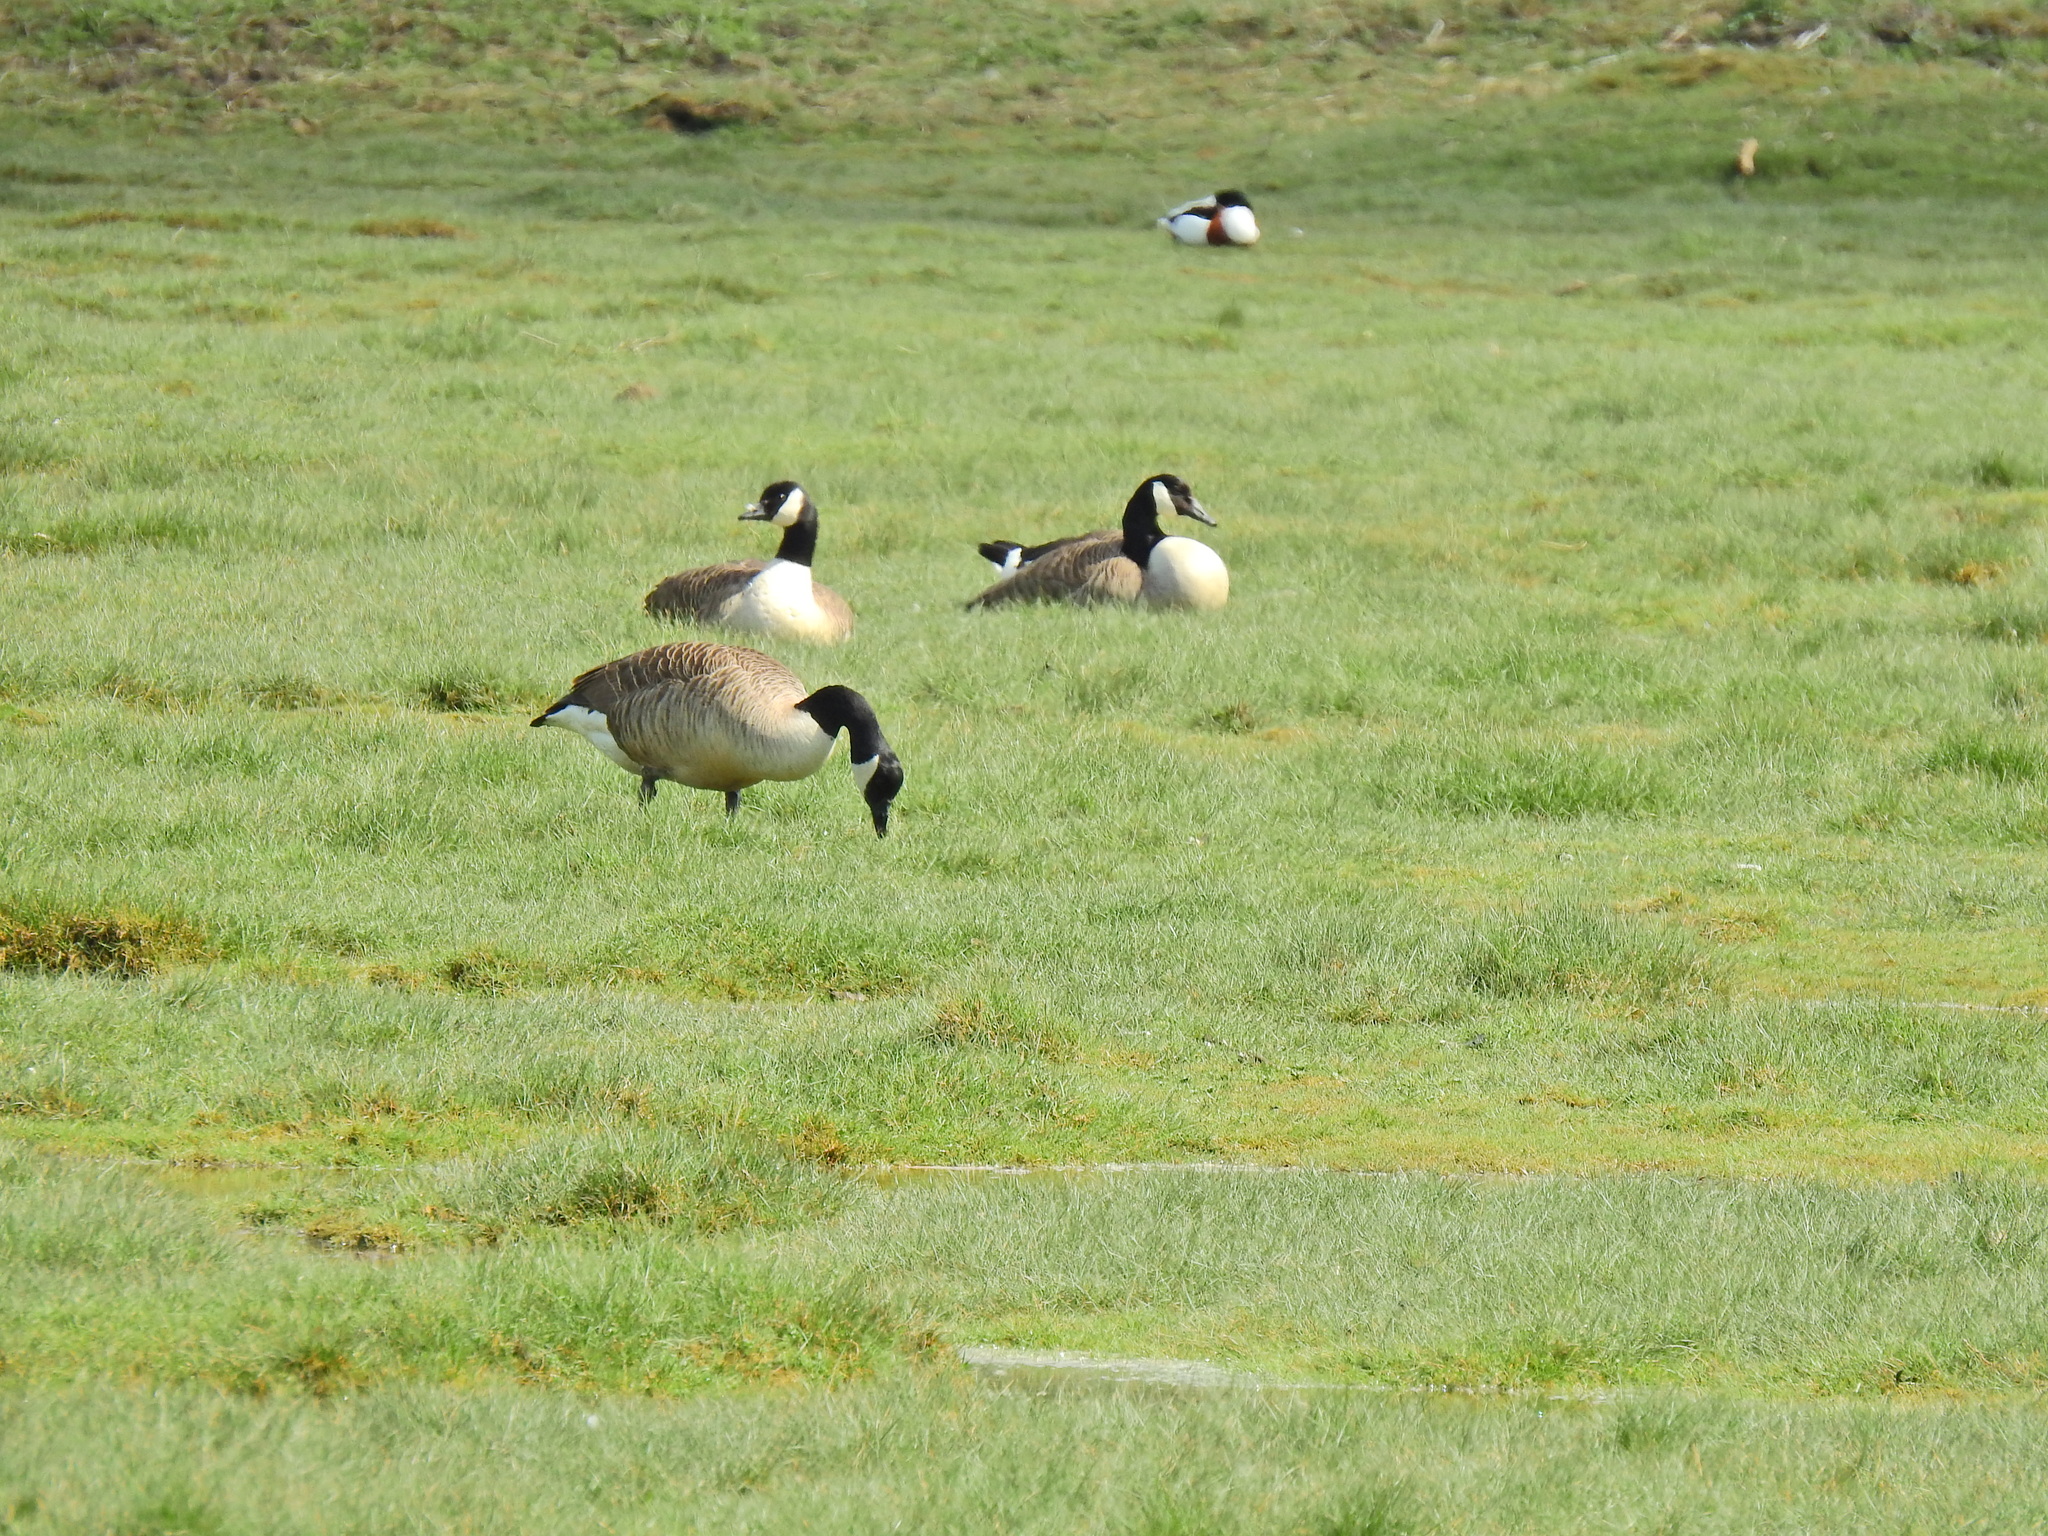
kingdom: Animalia
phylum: Chordata
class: Aves
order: Anseriformes
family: Anatidae
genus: Branta
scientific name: Branta canadensis
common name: Canada goose
